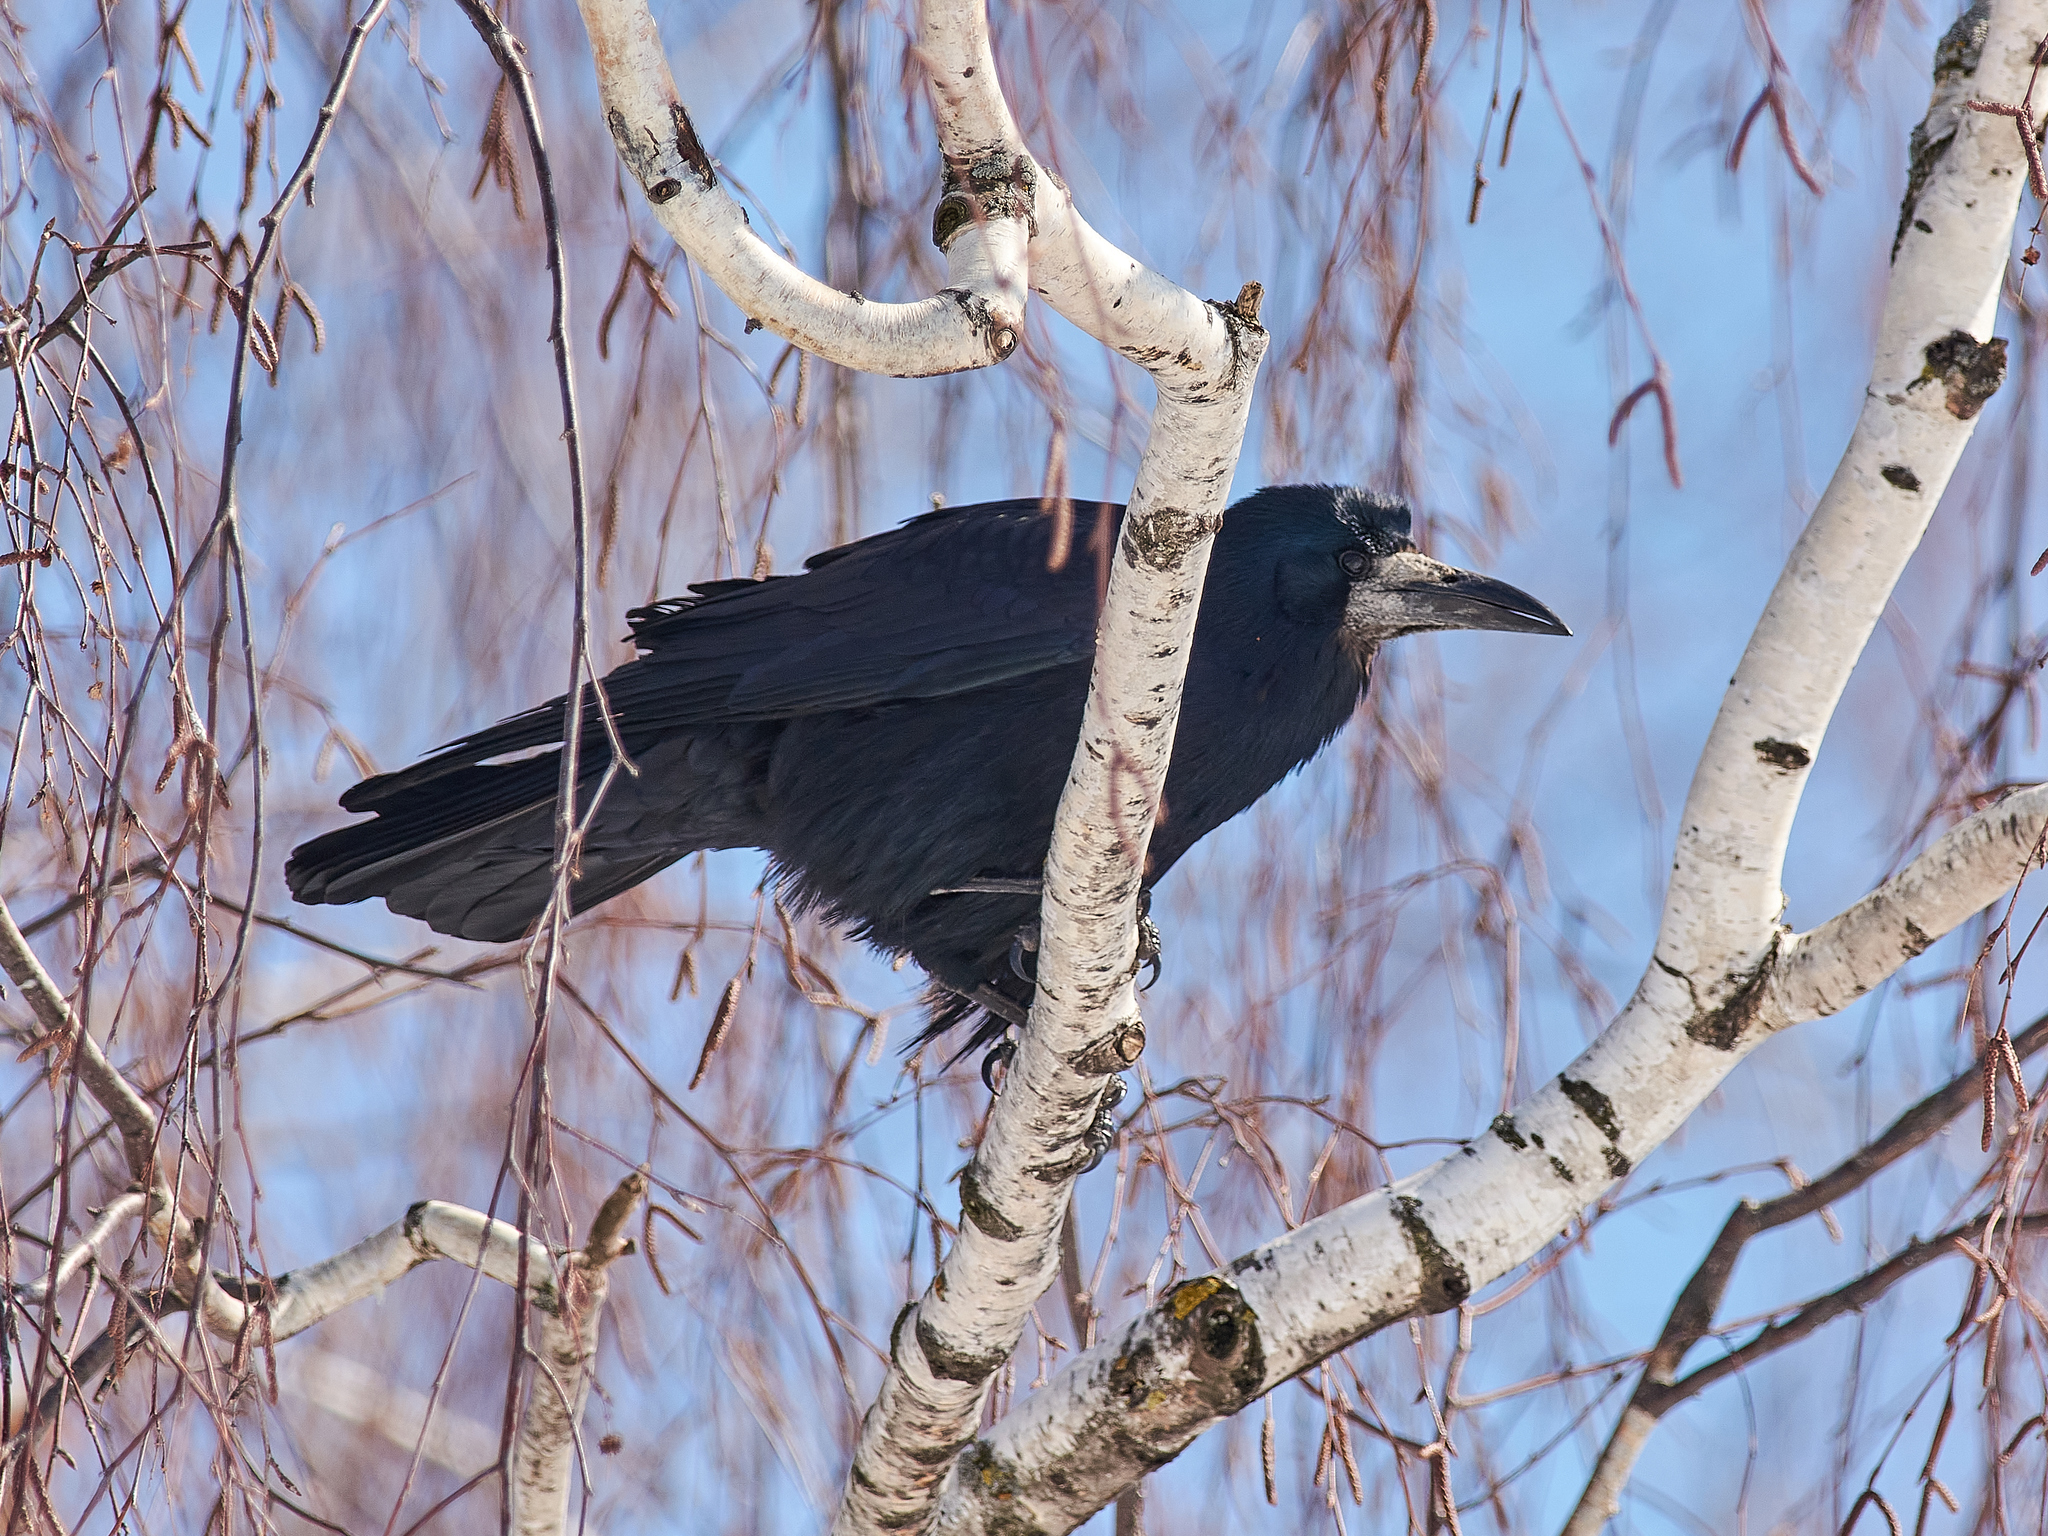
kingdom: Animalia
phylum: Chordata
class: Aves
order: Passeriformes
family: Corvidae
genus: Corvus
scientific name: Corvus frugilegus
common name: Rook
